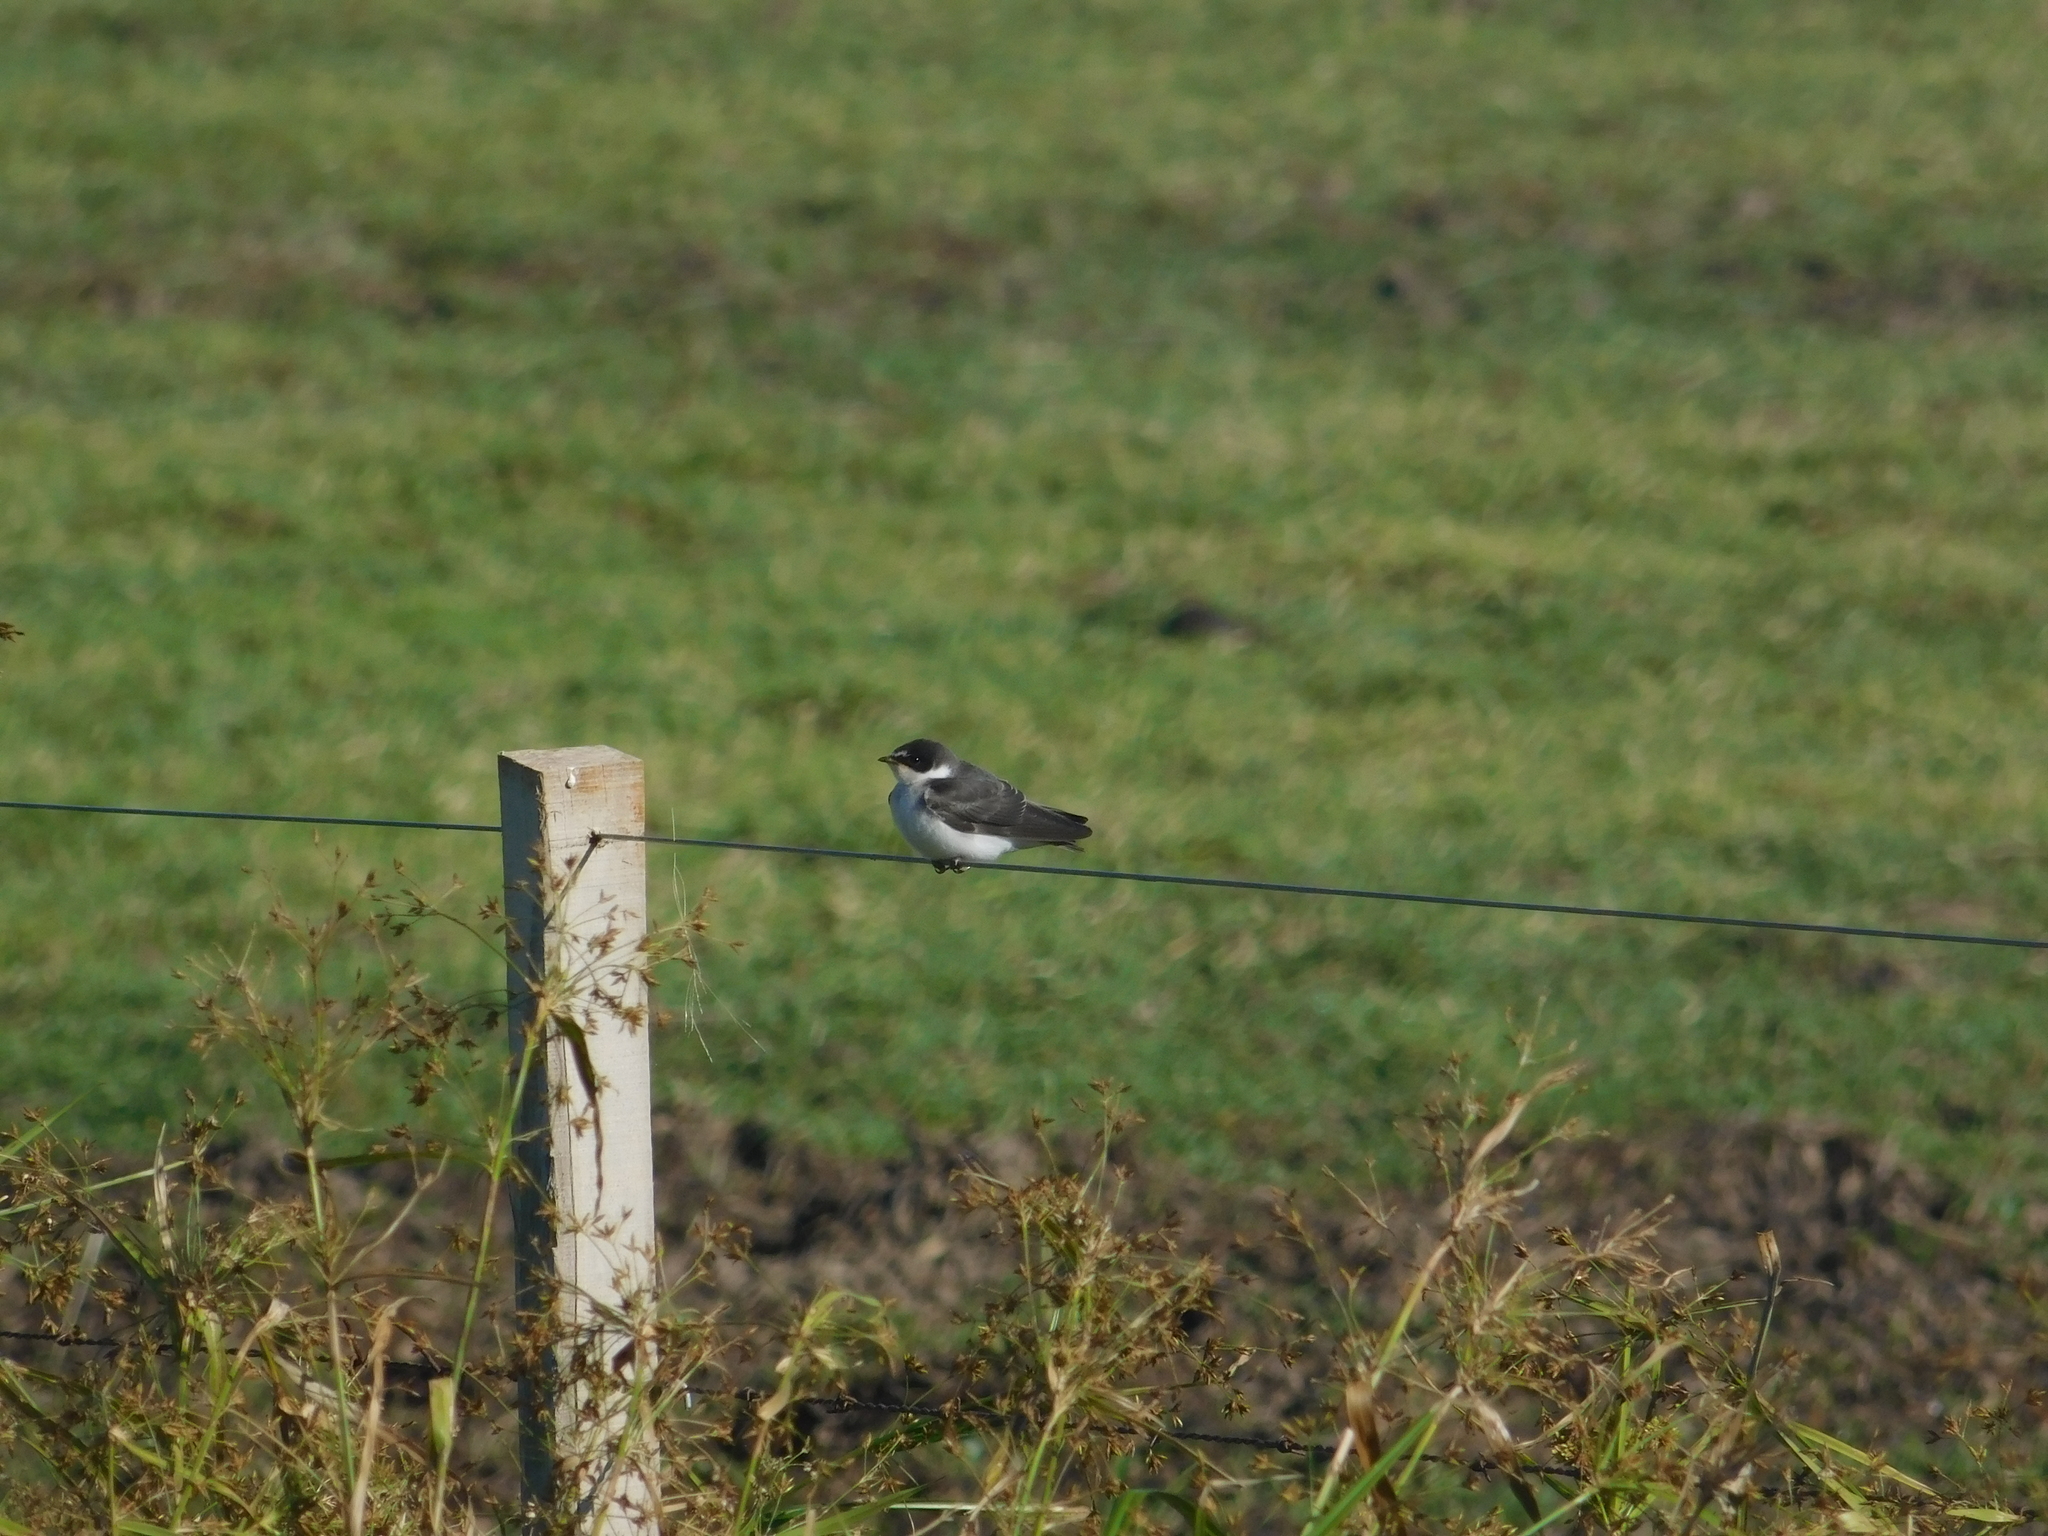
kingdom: Animalia
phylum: Chordata
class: Aves
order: Passeriformes
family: Hirundinidae
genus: Tachycineta
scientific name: Tachycineta leucorrhoa
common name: White-rumped swallow
